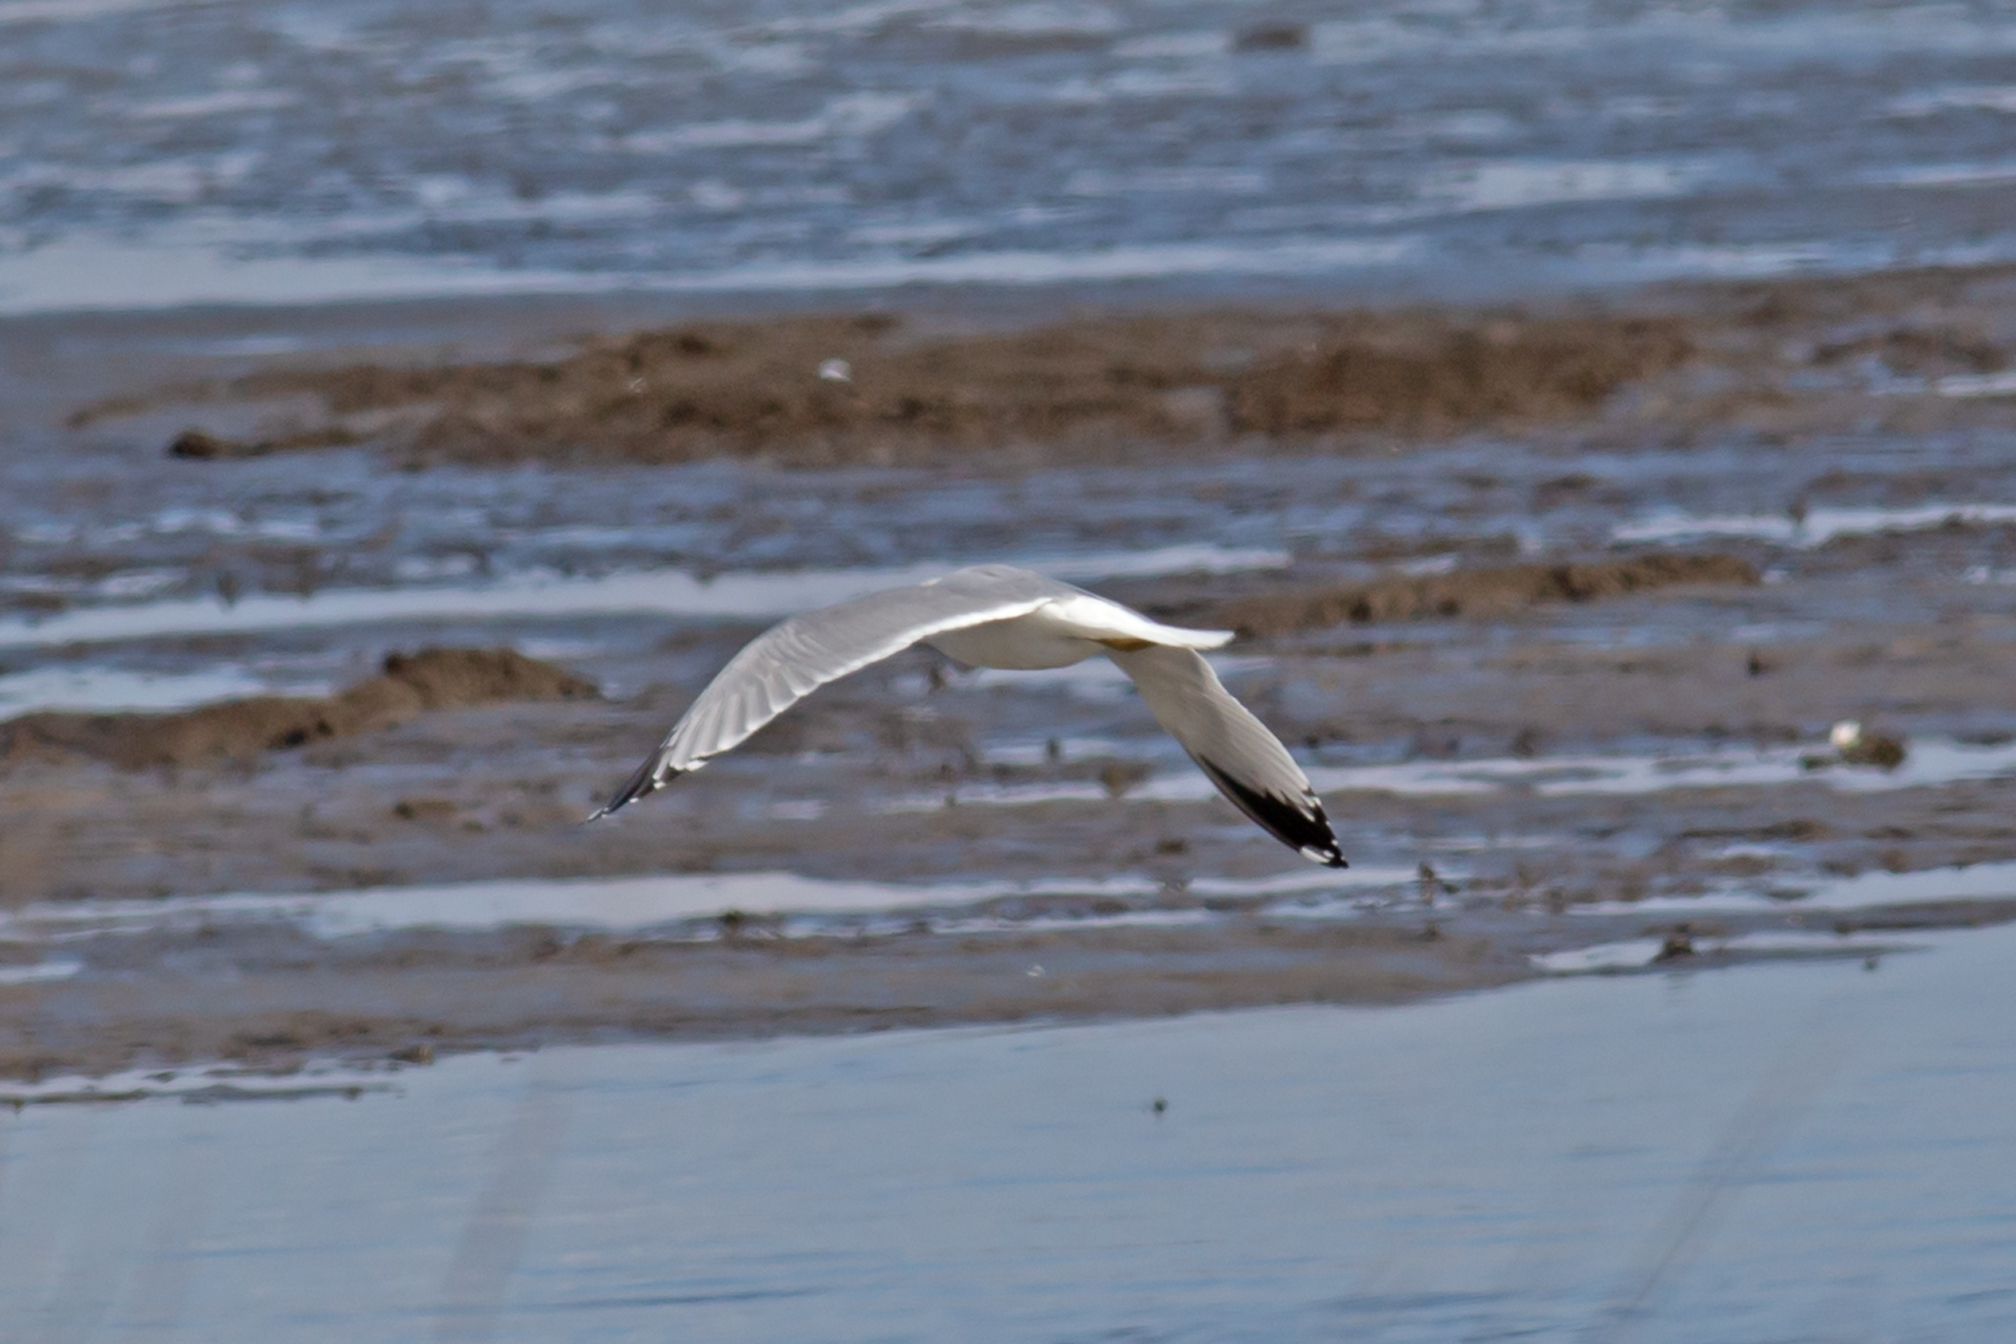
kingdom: Animalia
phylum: Chordata
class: Aves
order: Charadriiformes
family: Laridae
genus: Larus
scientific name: Larus delawarensis
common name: Ring-billed gull
